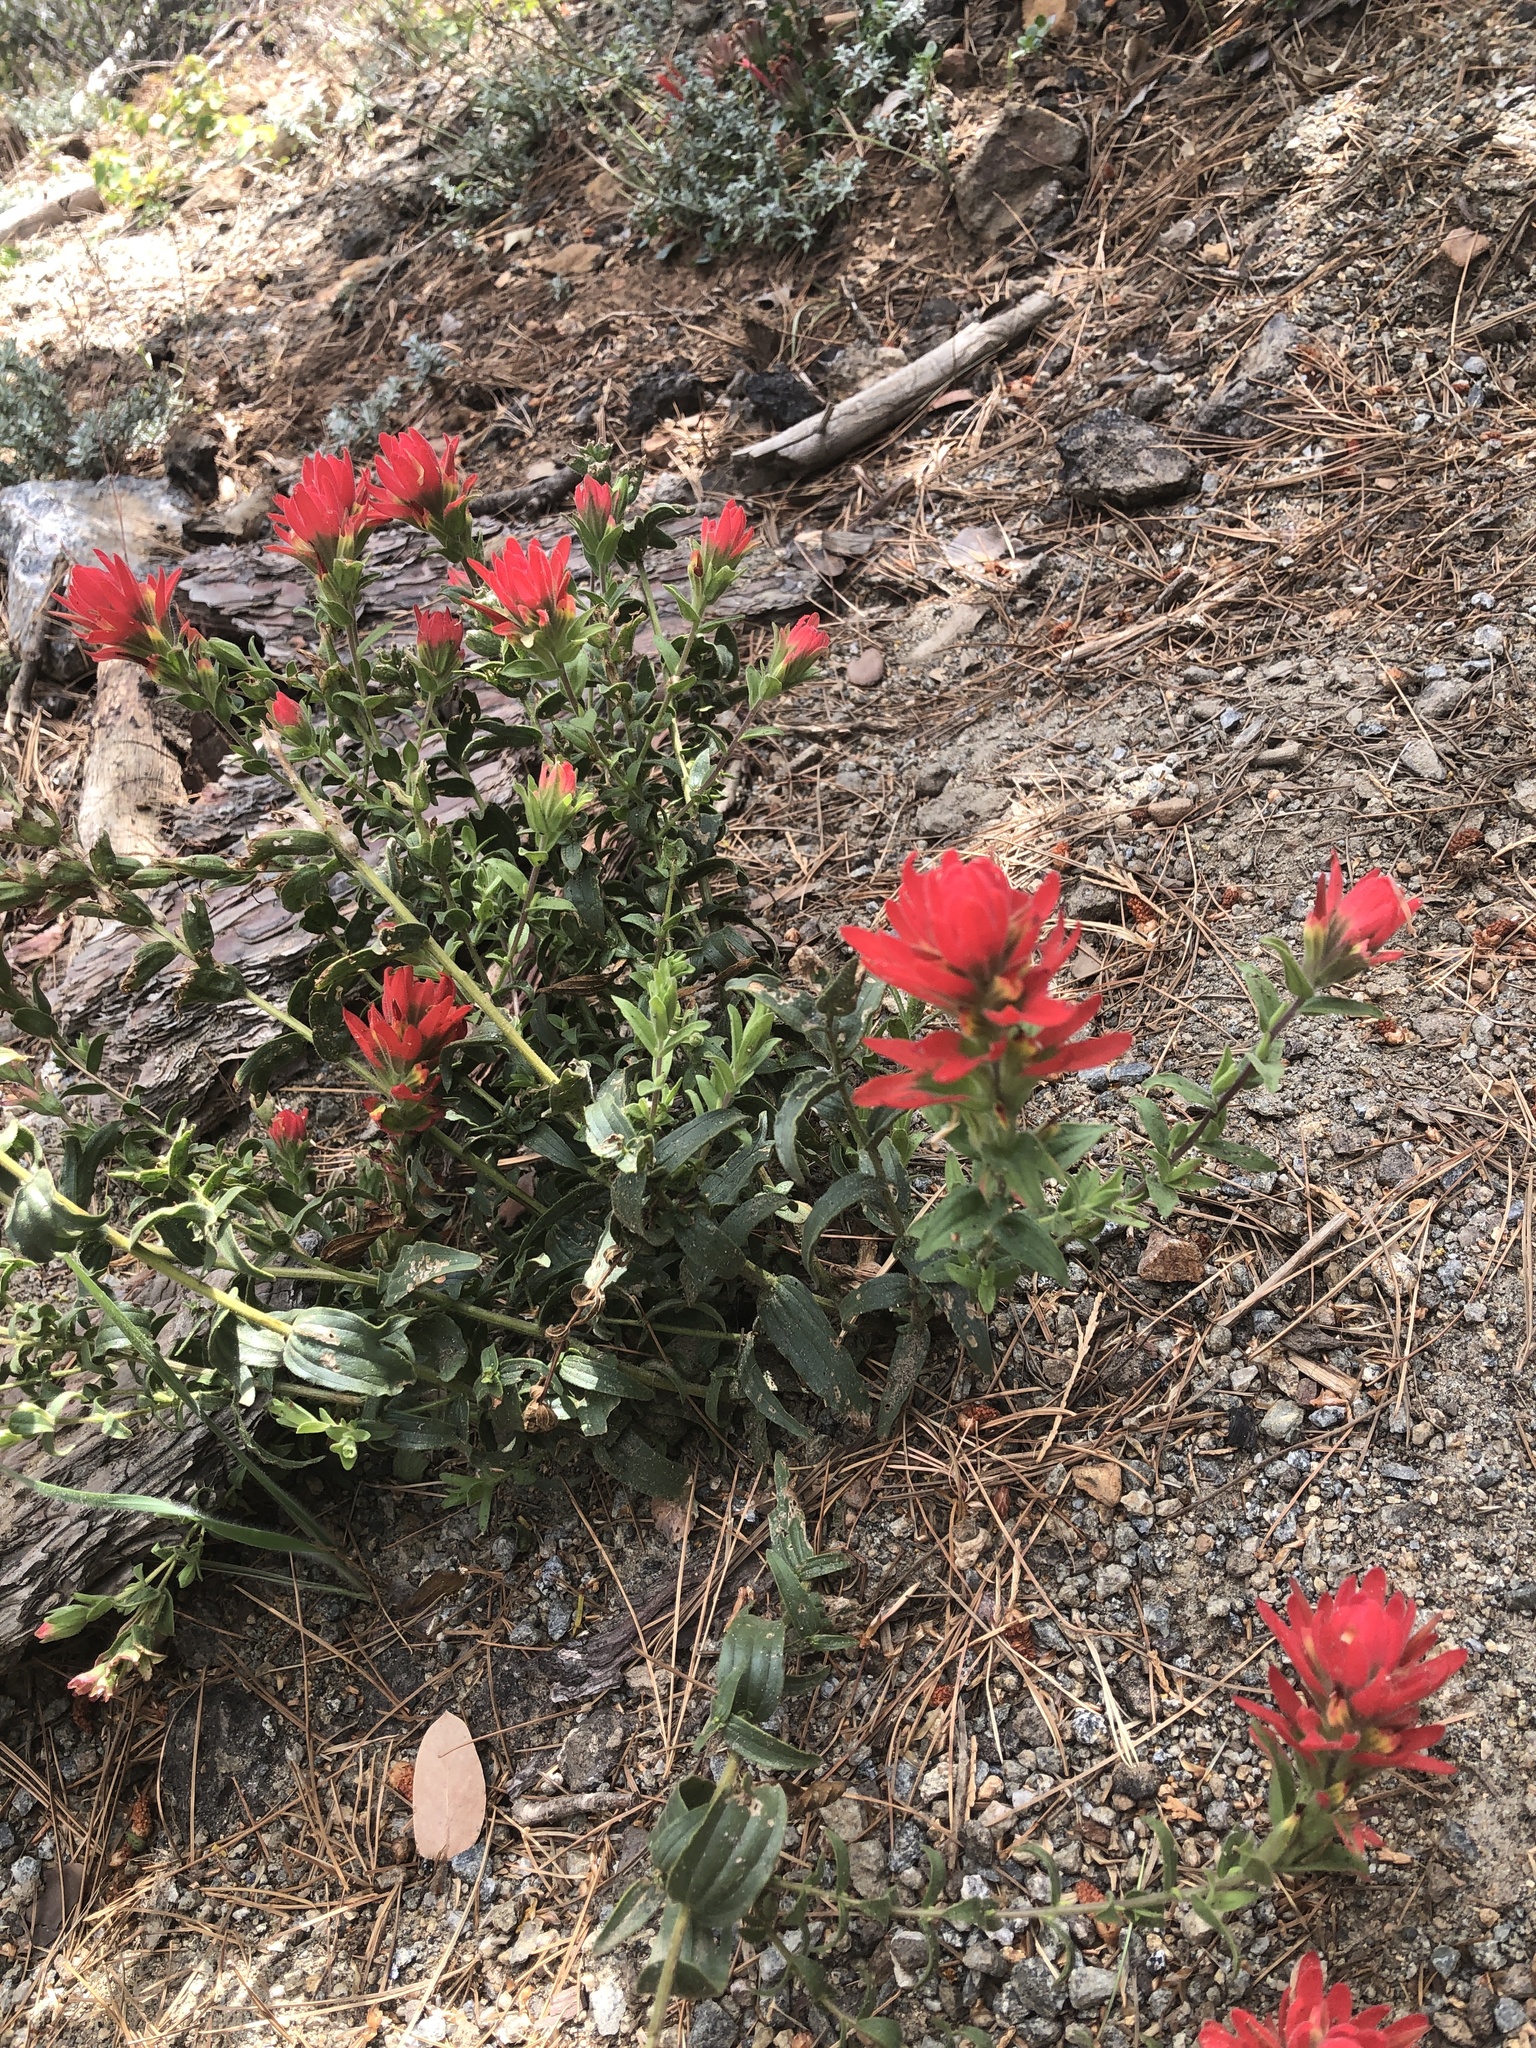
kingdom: Plantae
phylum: Tracheophyta
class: Magnoliopsida
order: Lamiales
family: Orobanchaceae
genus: Castilleja
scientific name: Castilleja martini
